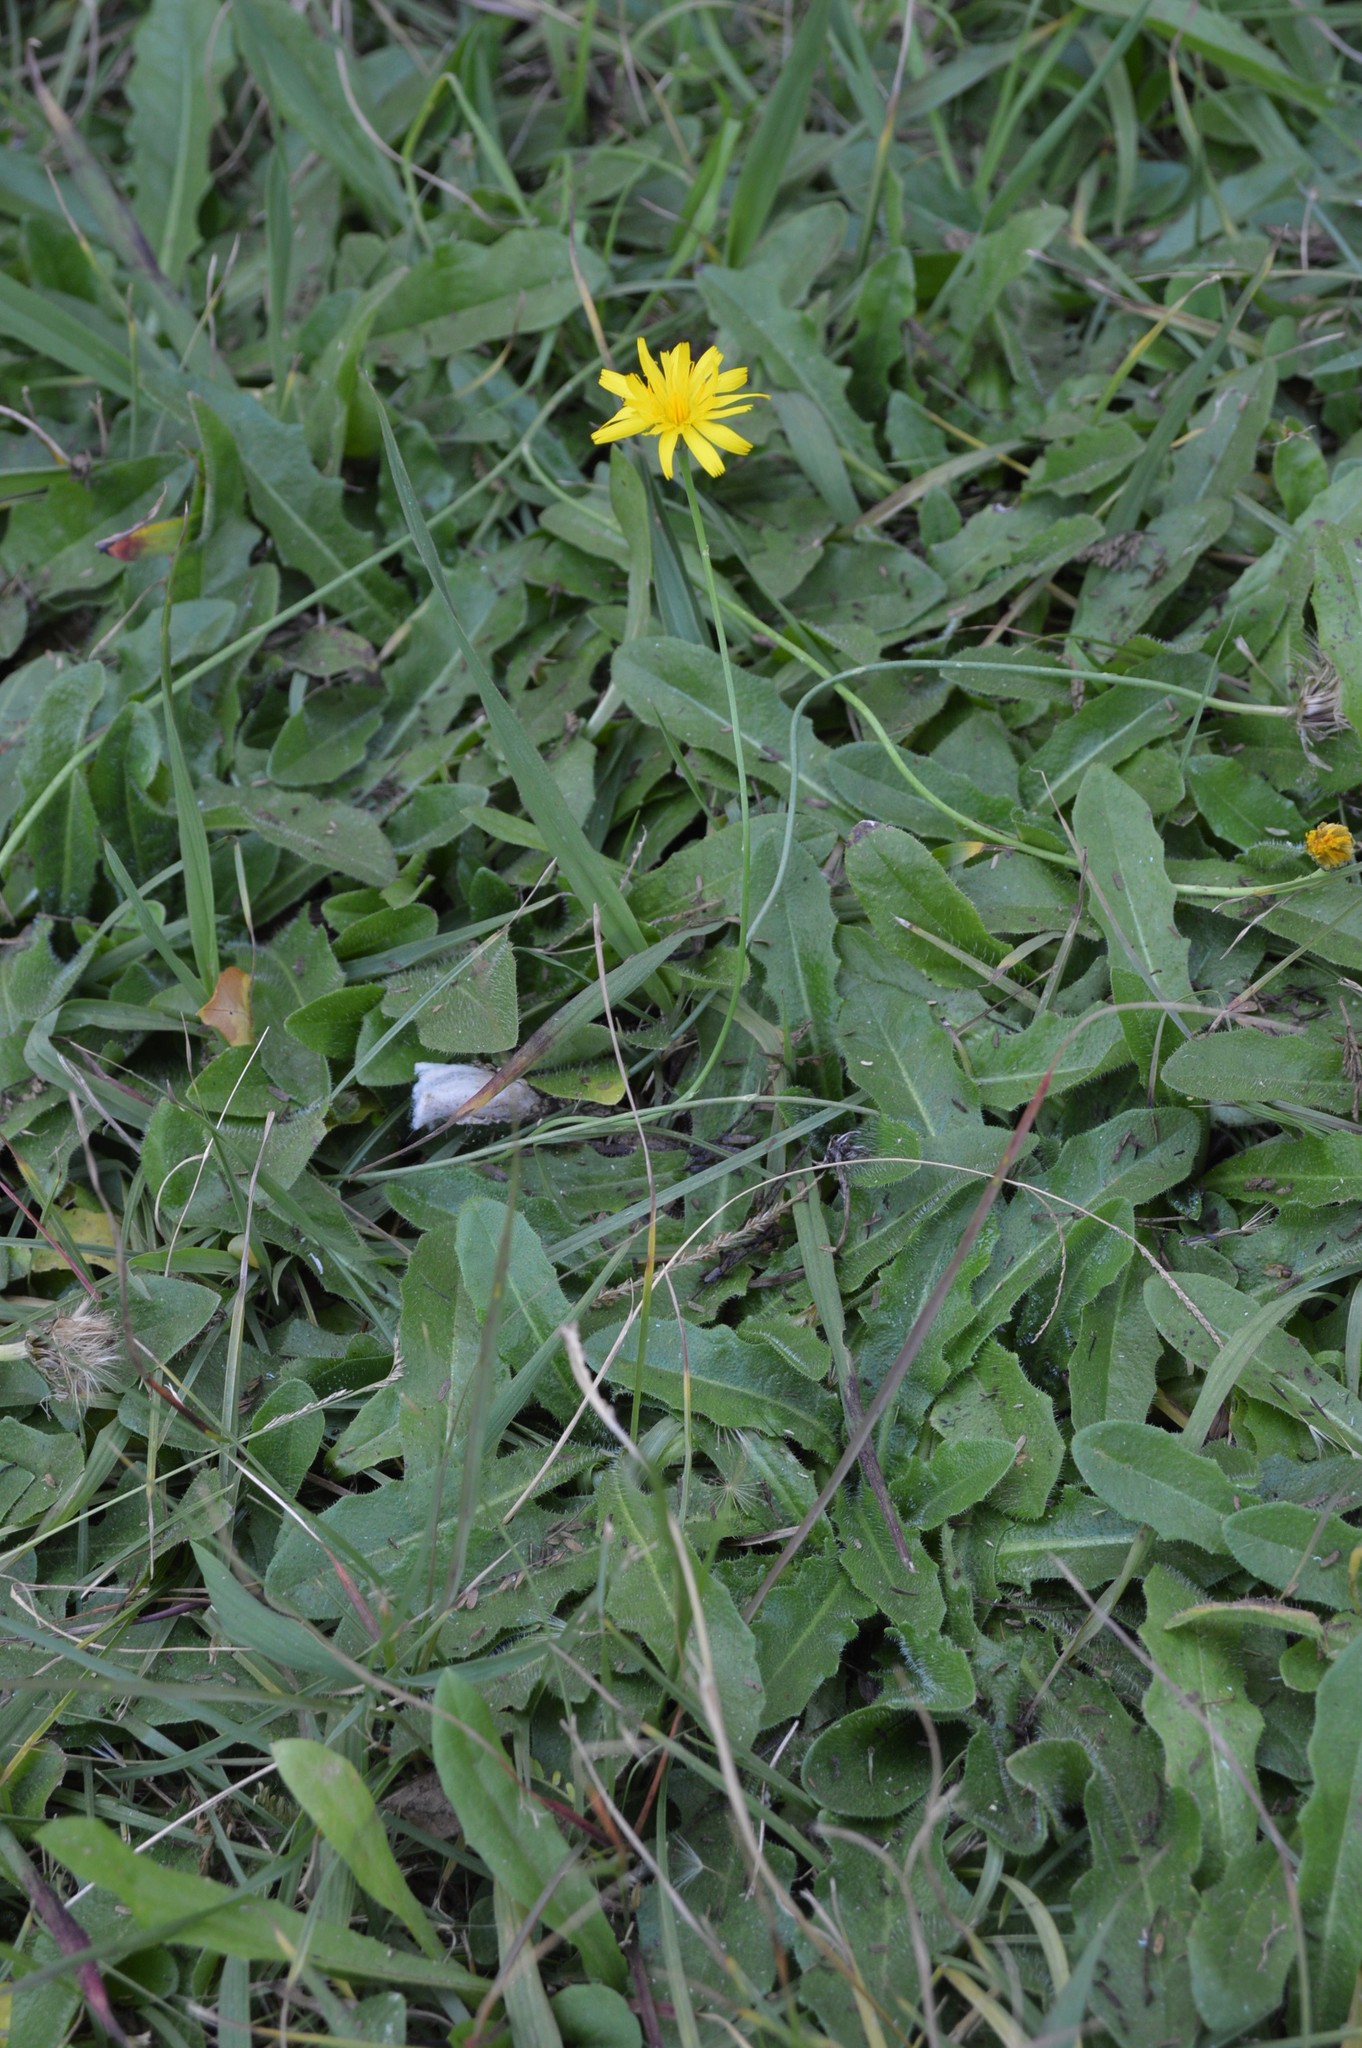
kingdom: Plantae
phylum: Tracheophyta
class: Magnoliopsida
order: Asterales
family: Asteraceae
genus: Hypochaeris
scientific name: Hypochaeris radicata
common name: Flatweed
